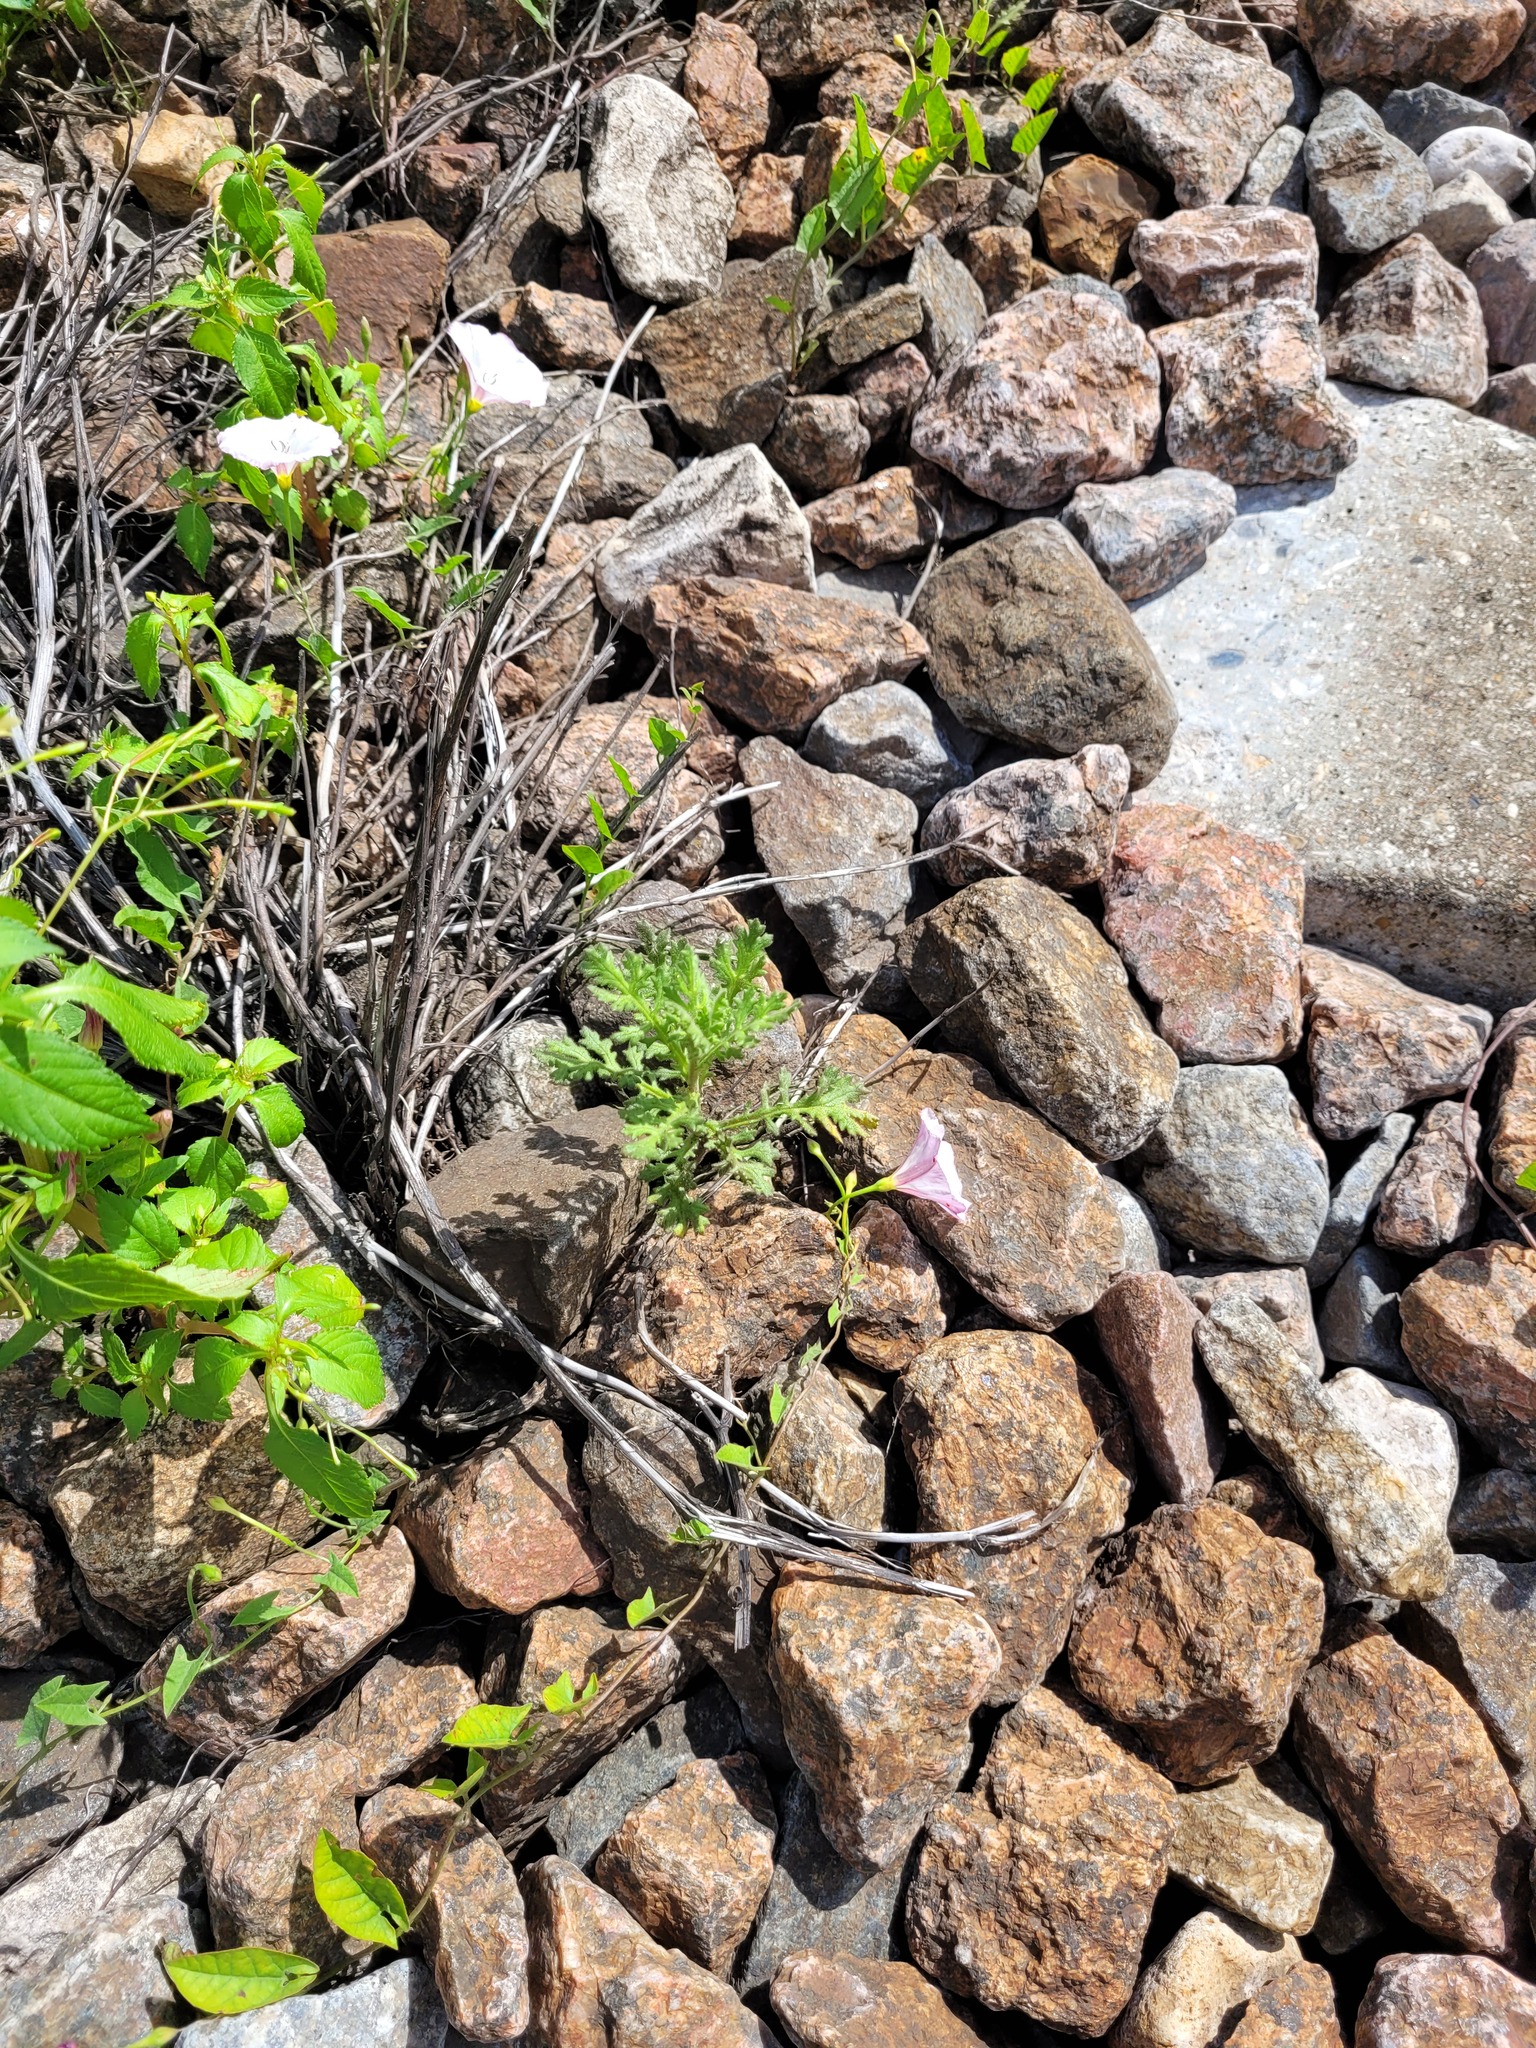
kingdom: Plantae
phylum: Tracheophyta
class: Magnoliopsida
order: Asterales
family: Asteraceae
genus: Senecio
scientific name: Senecio viscosus
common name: Sticky groundsel
